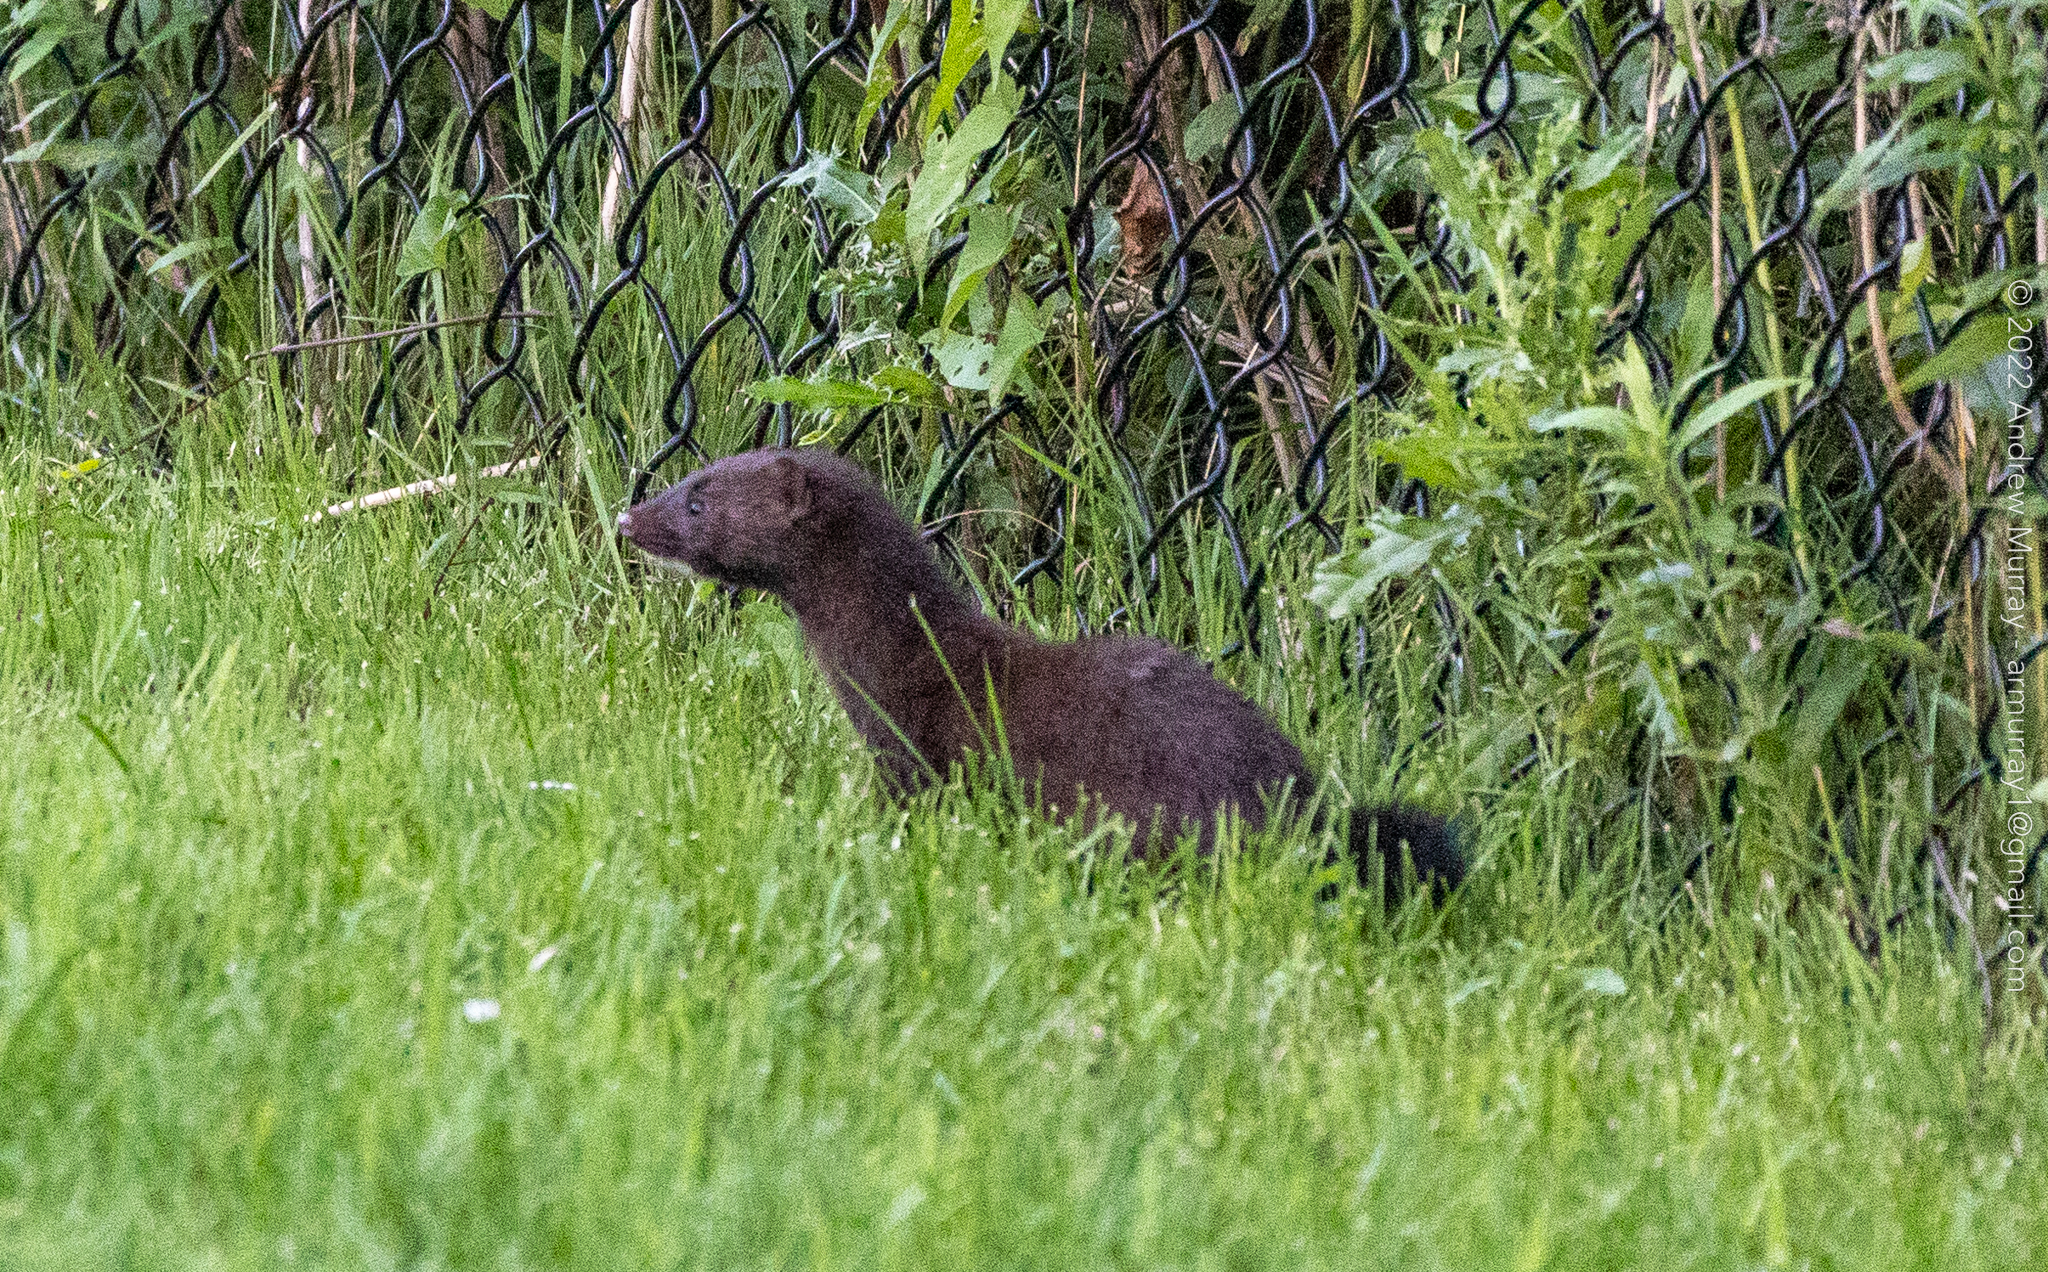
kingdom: Animalia
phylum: Chordata
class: Mammalia
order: Carnivora
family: Mustelidae
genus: Mustela
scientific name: Mustela
